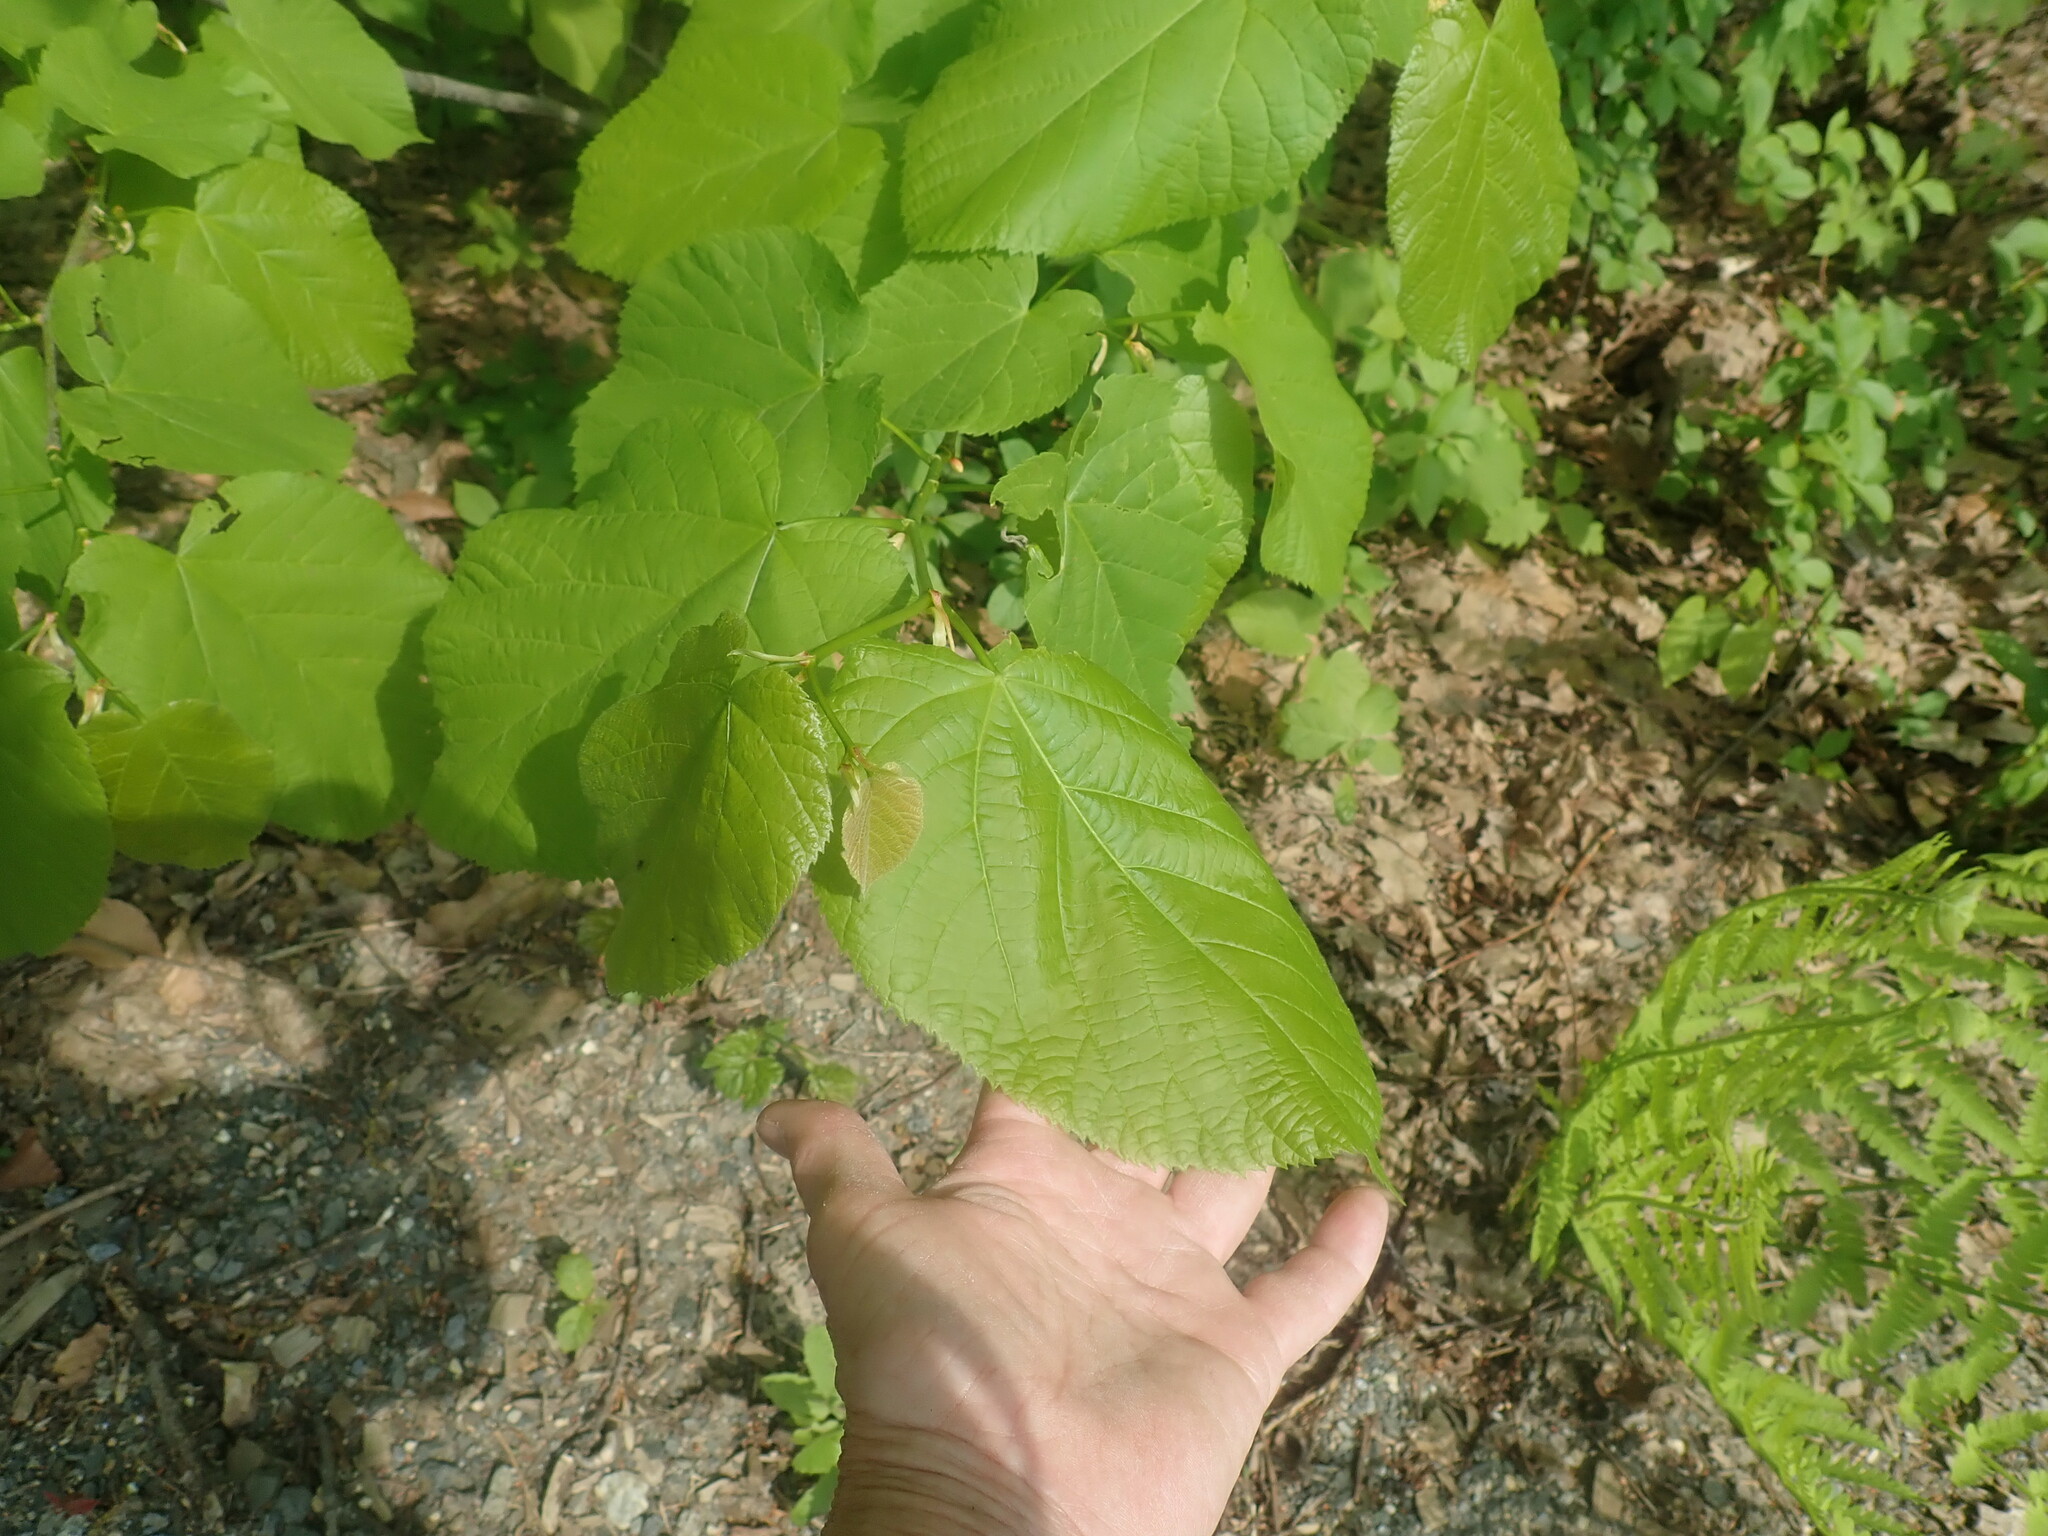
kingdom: Plantae
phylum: Tracheophyta
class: Magnoliopsida
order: Malvales
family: Malvaceae
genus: Tilia
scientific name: Tilia americana
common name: Basswood
